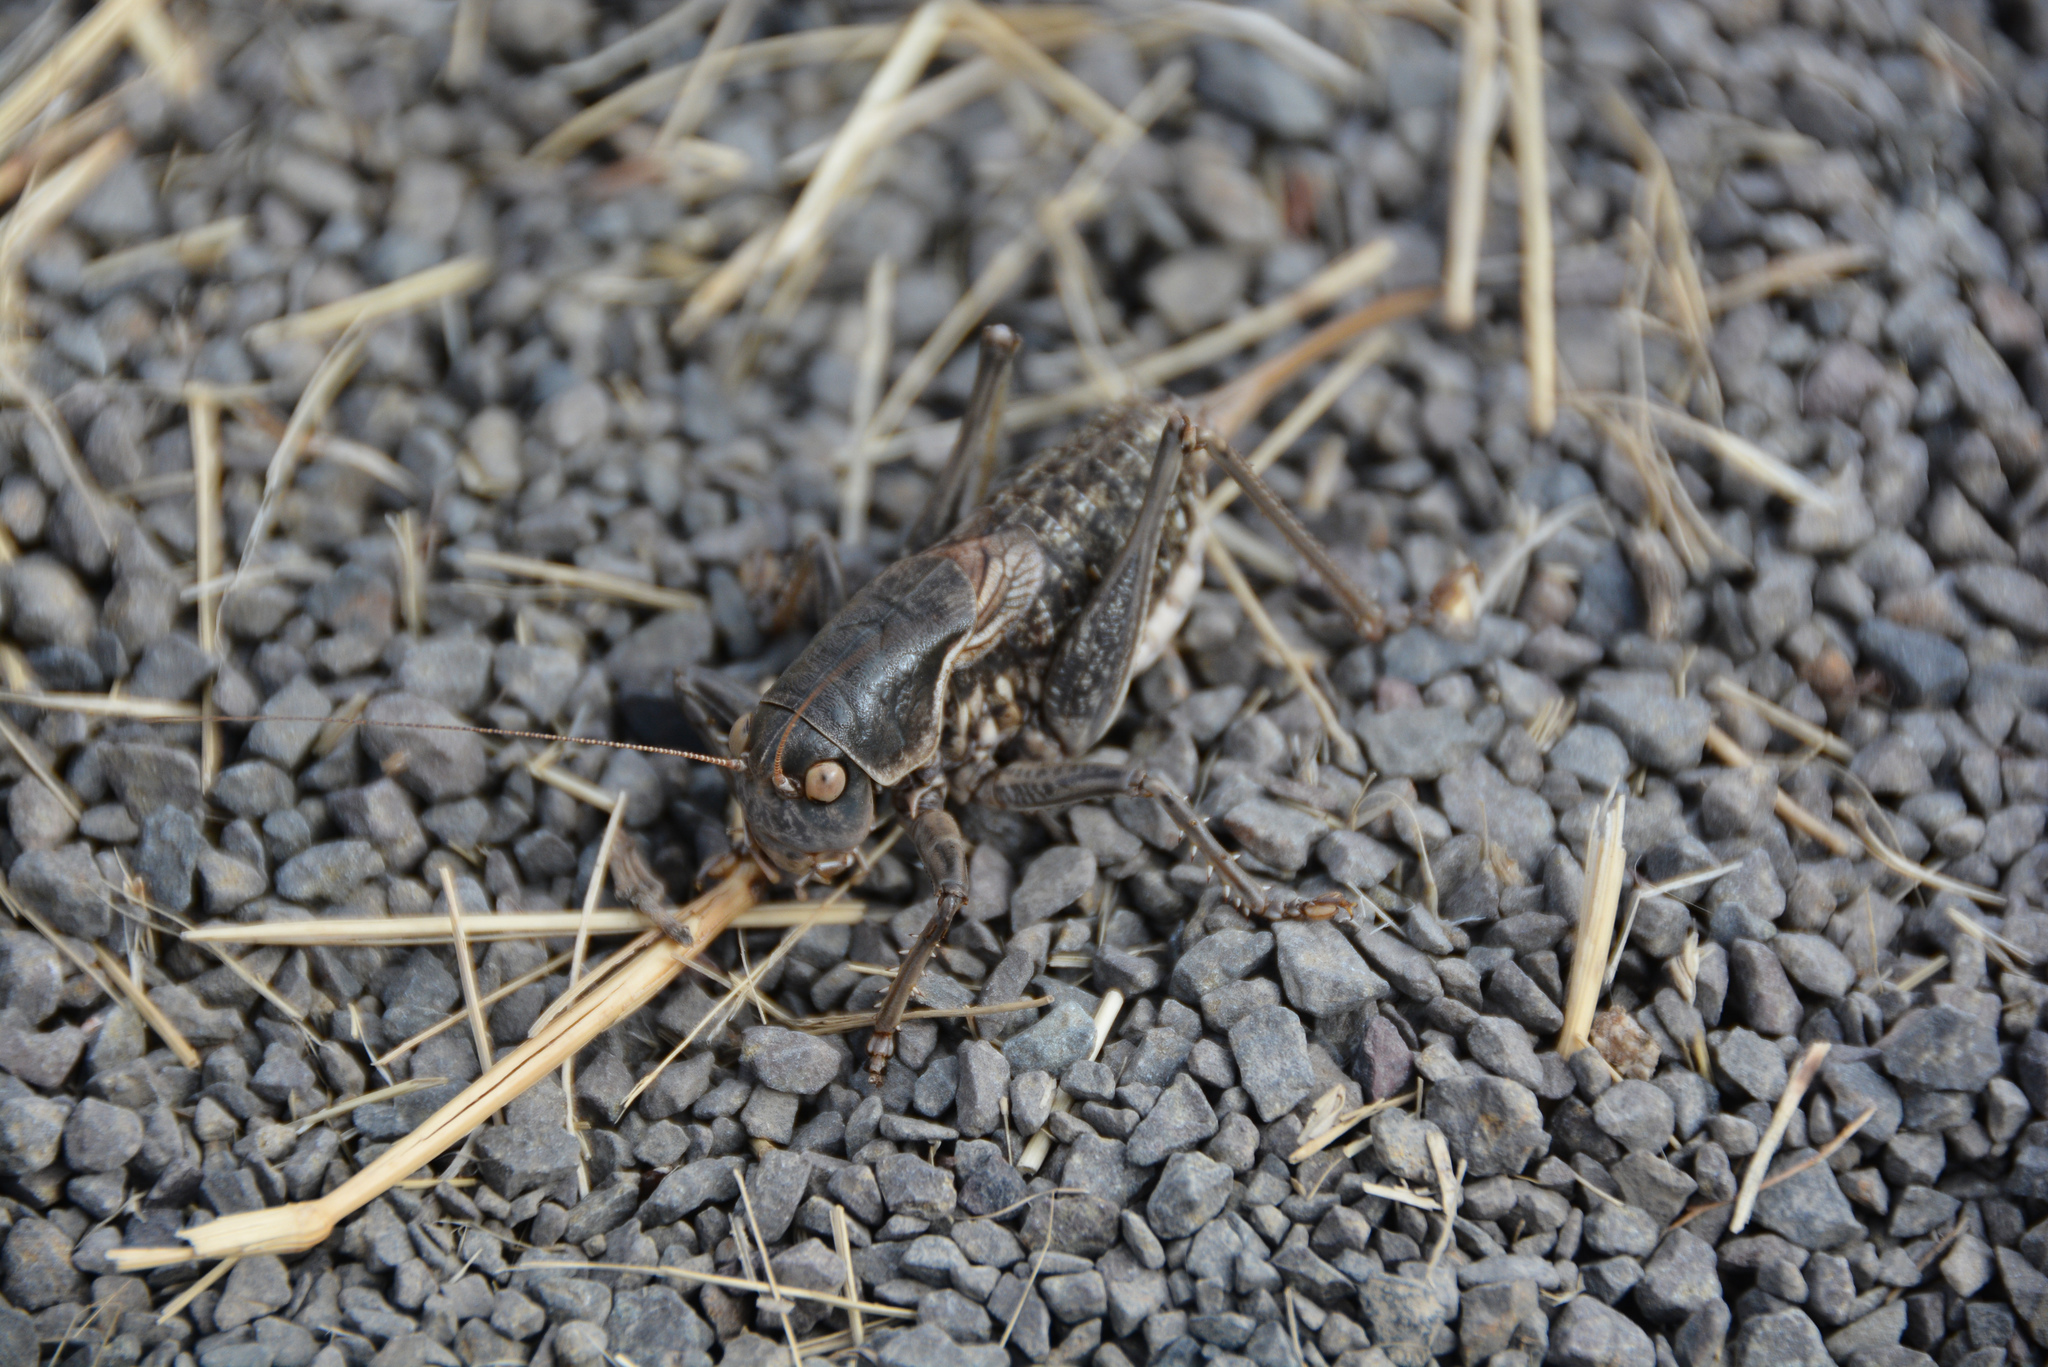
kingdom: Animalia
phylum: Arthropoda
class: Insecta
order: Orthoptera
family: Tettigoniidae
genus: Apote
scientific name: Apote
